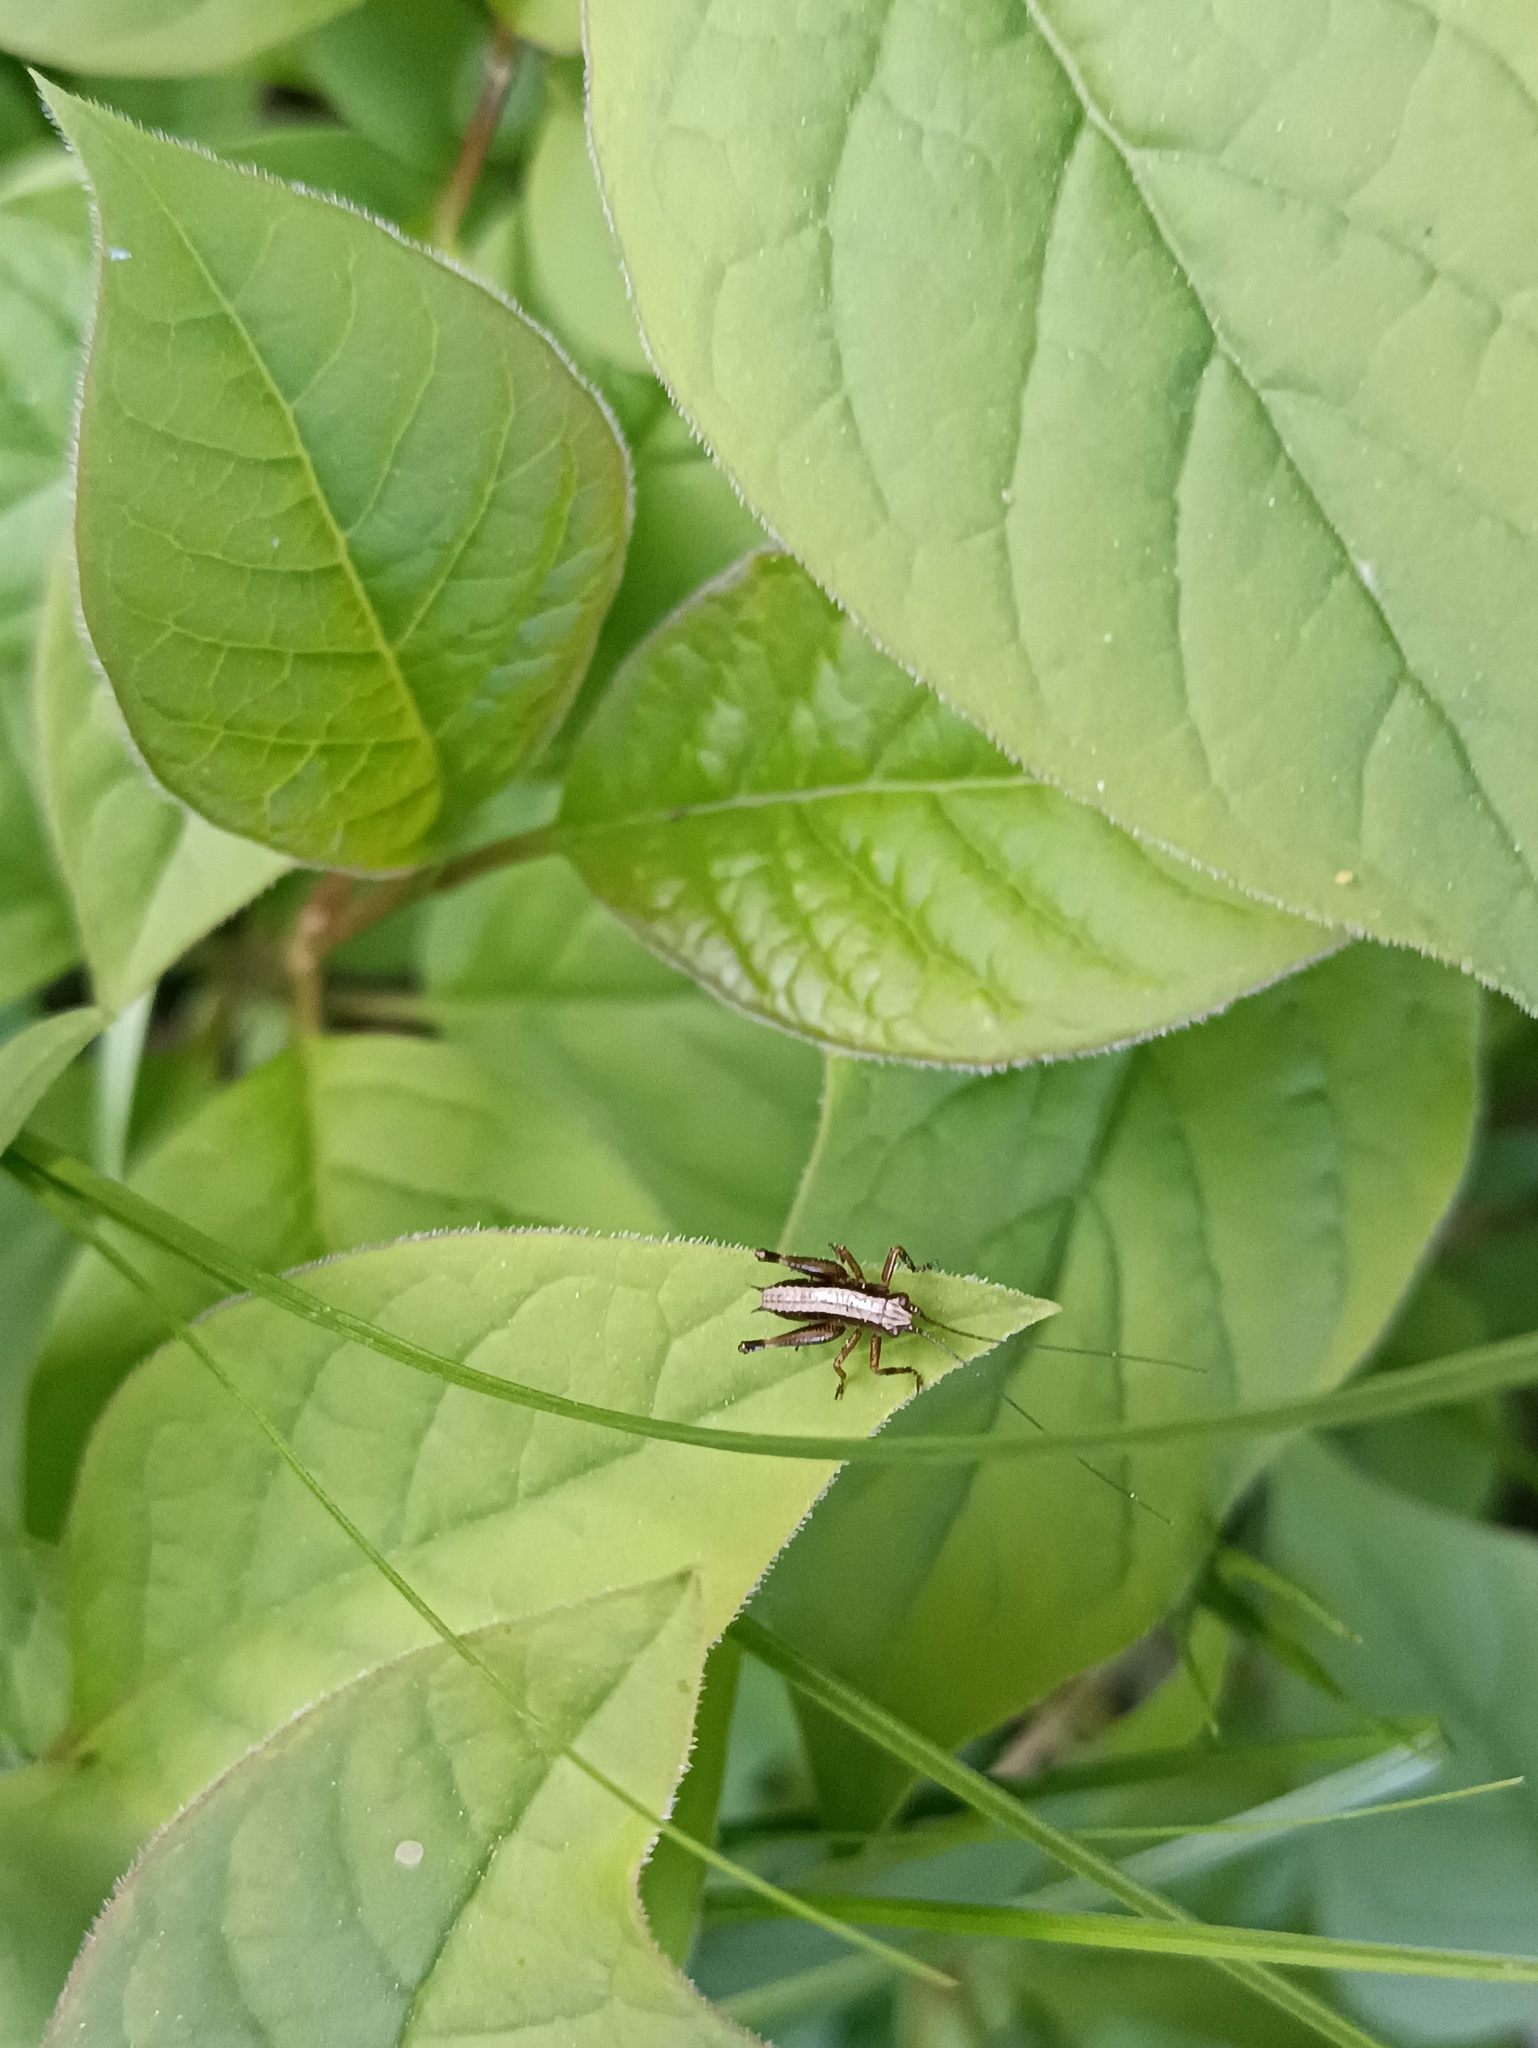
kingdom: Animalia
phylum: Arthropoda
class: Insecta
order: Orthoptera
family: Tettigoniidae
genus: Pholidoptera
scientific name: Pholidoptera griseoaptera
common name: Dark bush-cricket
